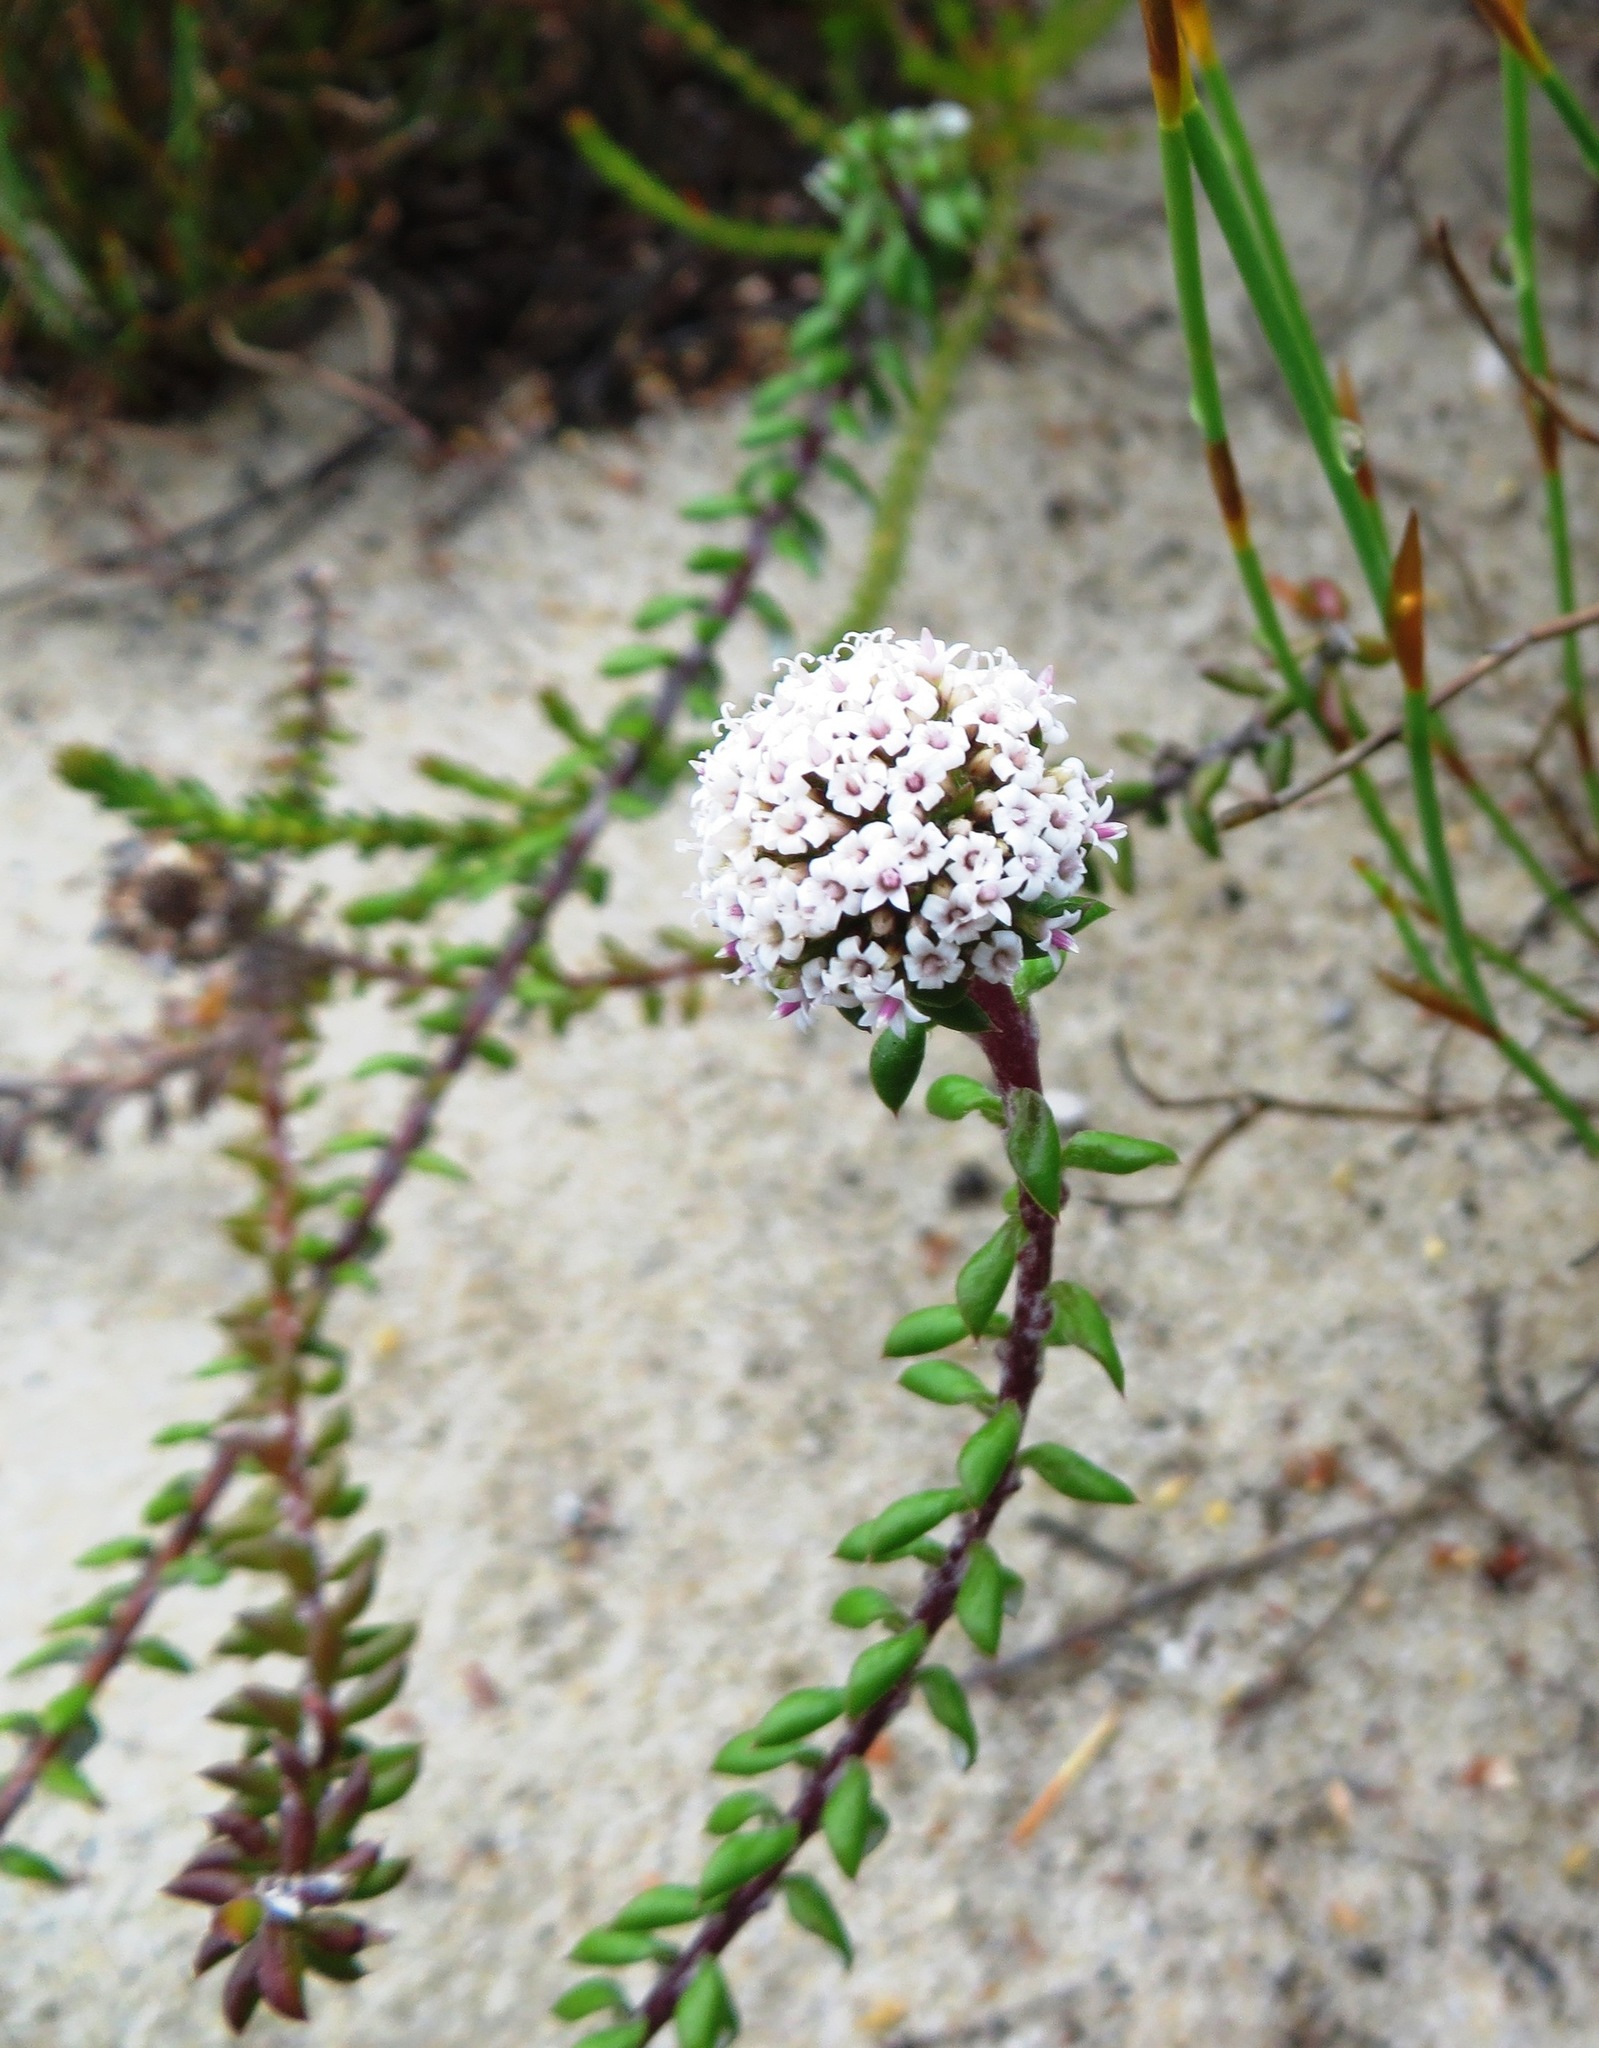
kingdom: Plantae
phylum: Tracheophyta
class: Magnoliopsida
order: Asterales
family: Asteraceae
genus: Stoebe
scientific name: Stoebe cyathuloides
